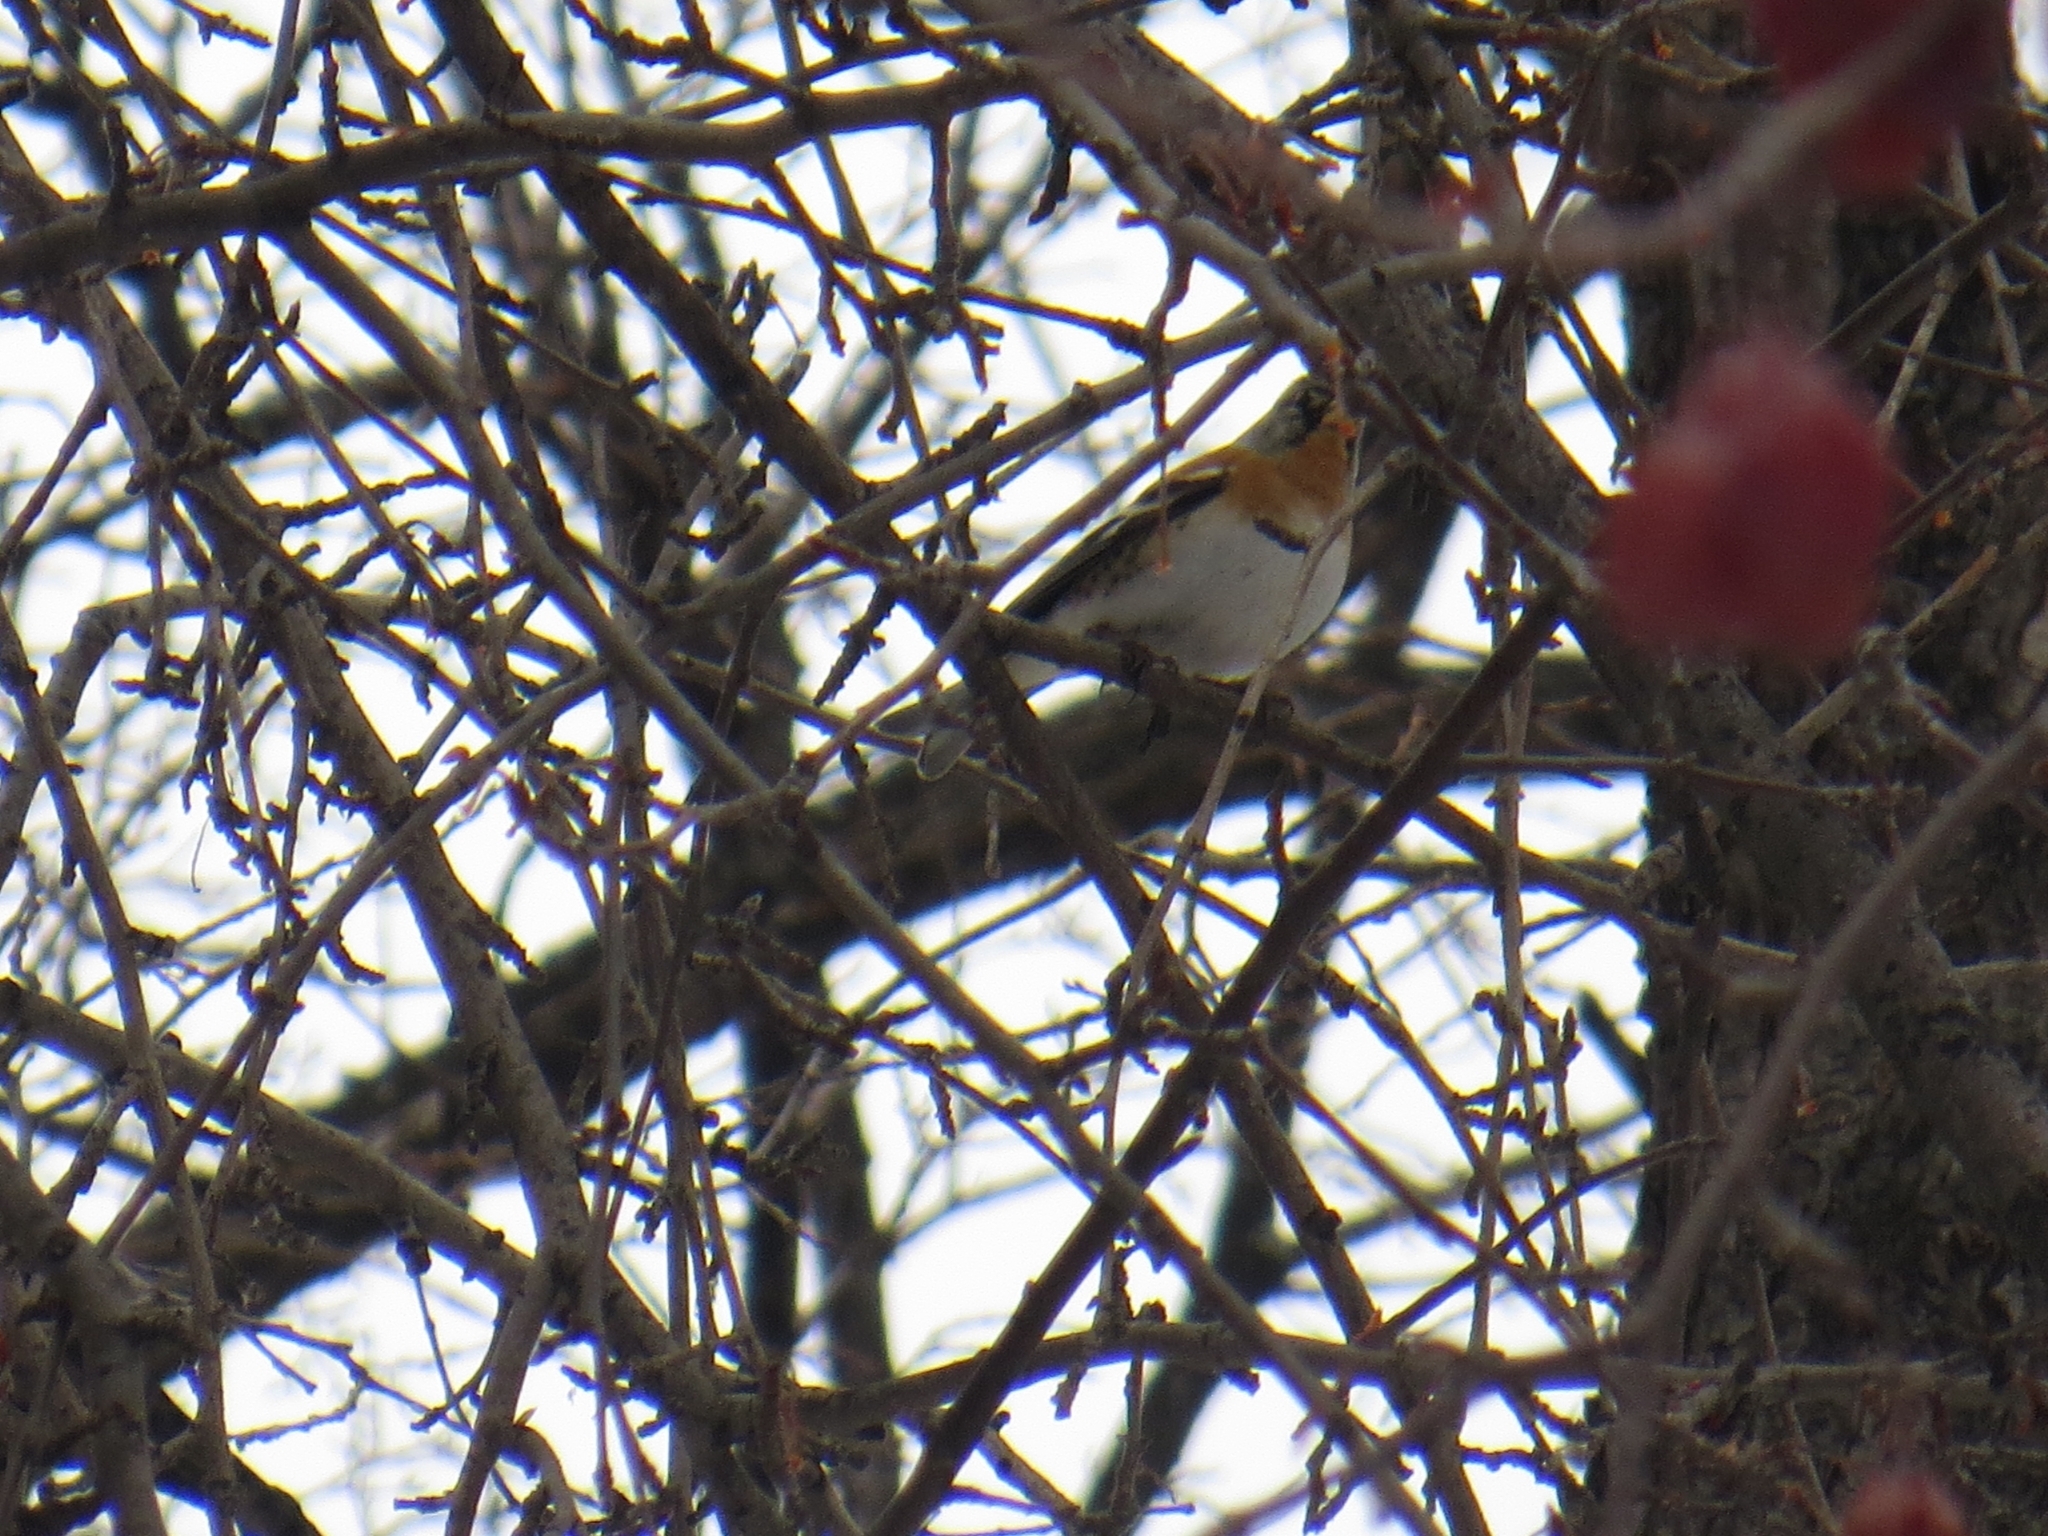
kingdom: Animalia
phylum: Chordata
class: Aves
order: Passeriformes
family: Fringillidae
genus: Fringilla
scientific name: Fringilla montifringilla
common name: Brambling
